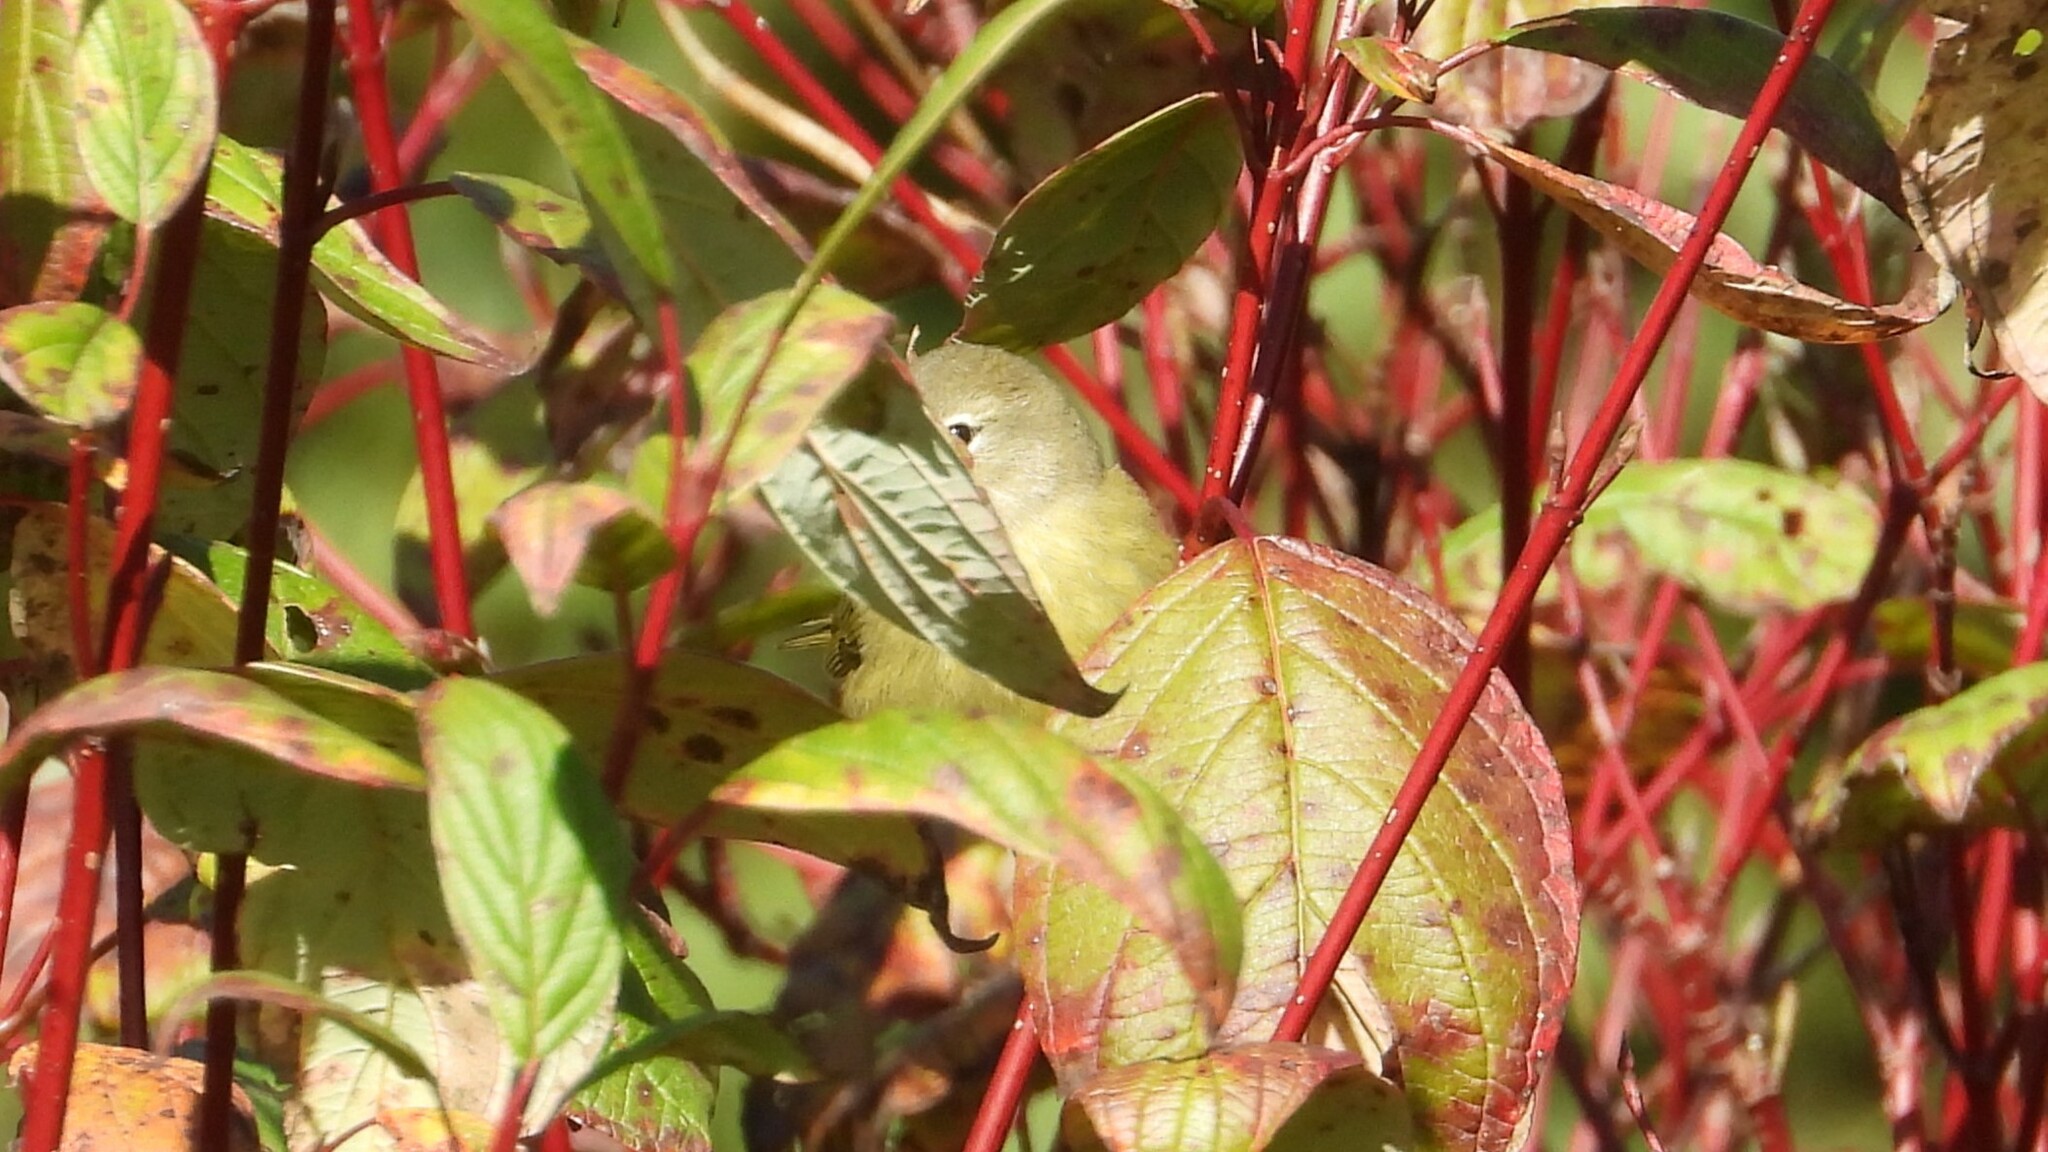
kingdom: Animalia
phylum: Chordata
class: Aves
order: Passeriformes
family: Parulidae
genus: Leiothlypis
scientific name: Leiothlypis celata
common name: Orange-crowned warbler
